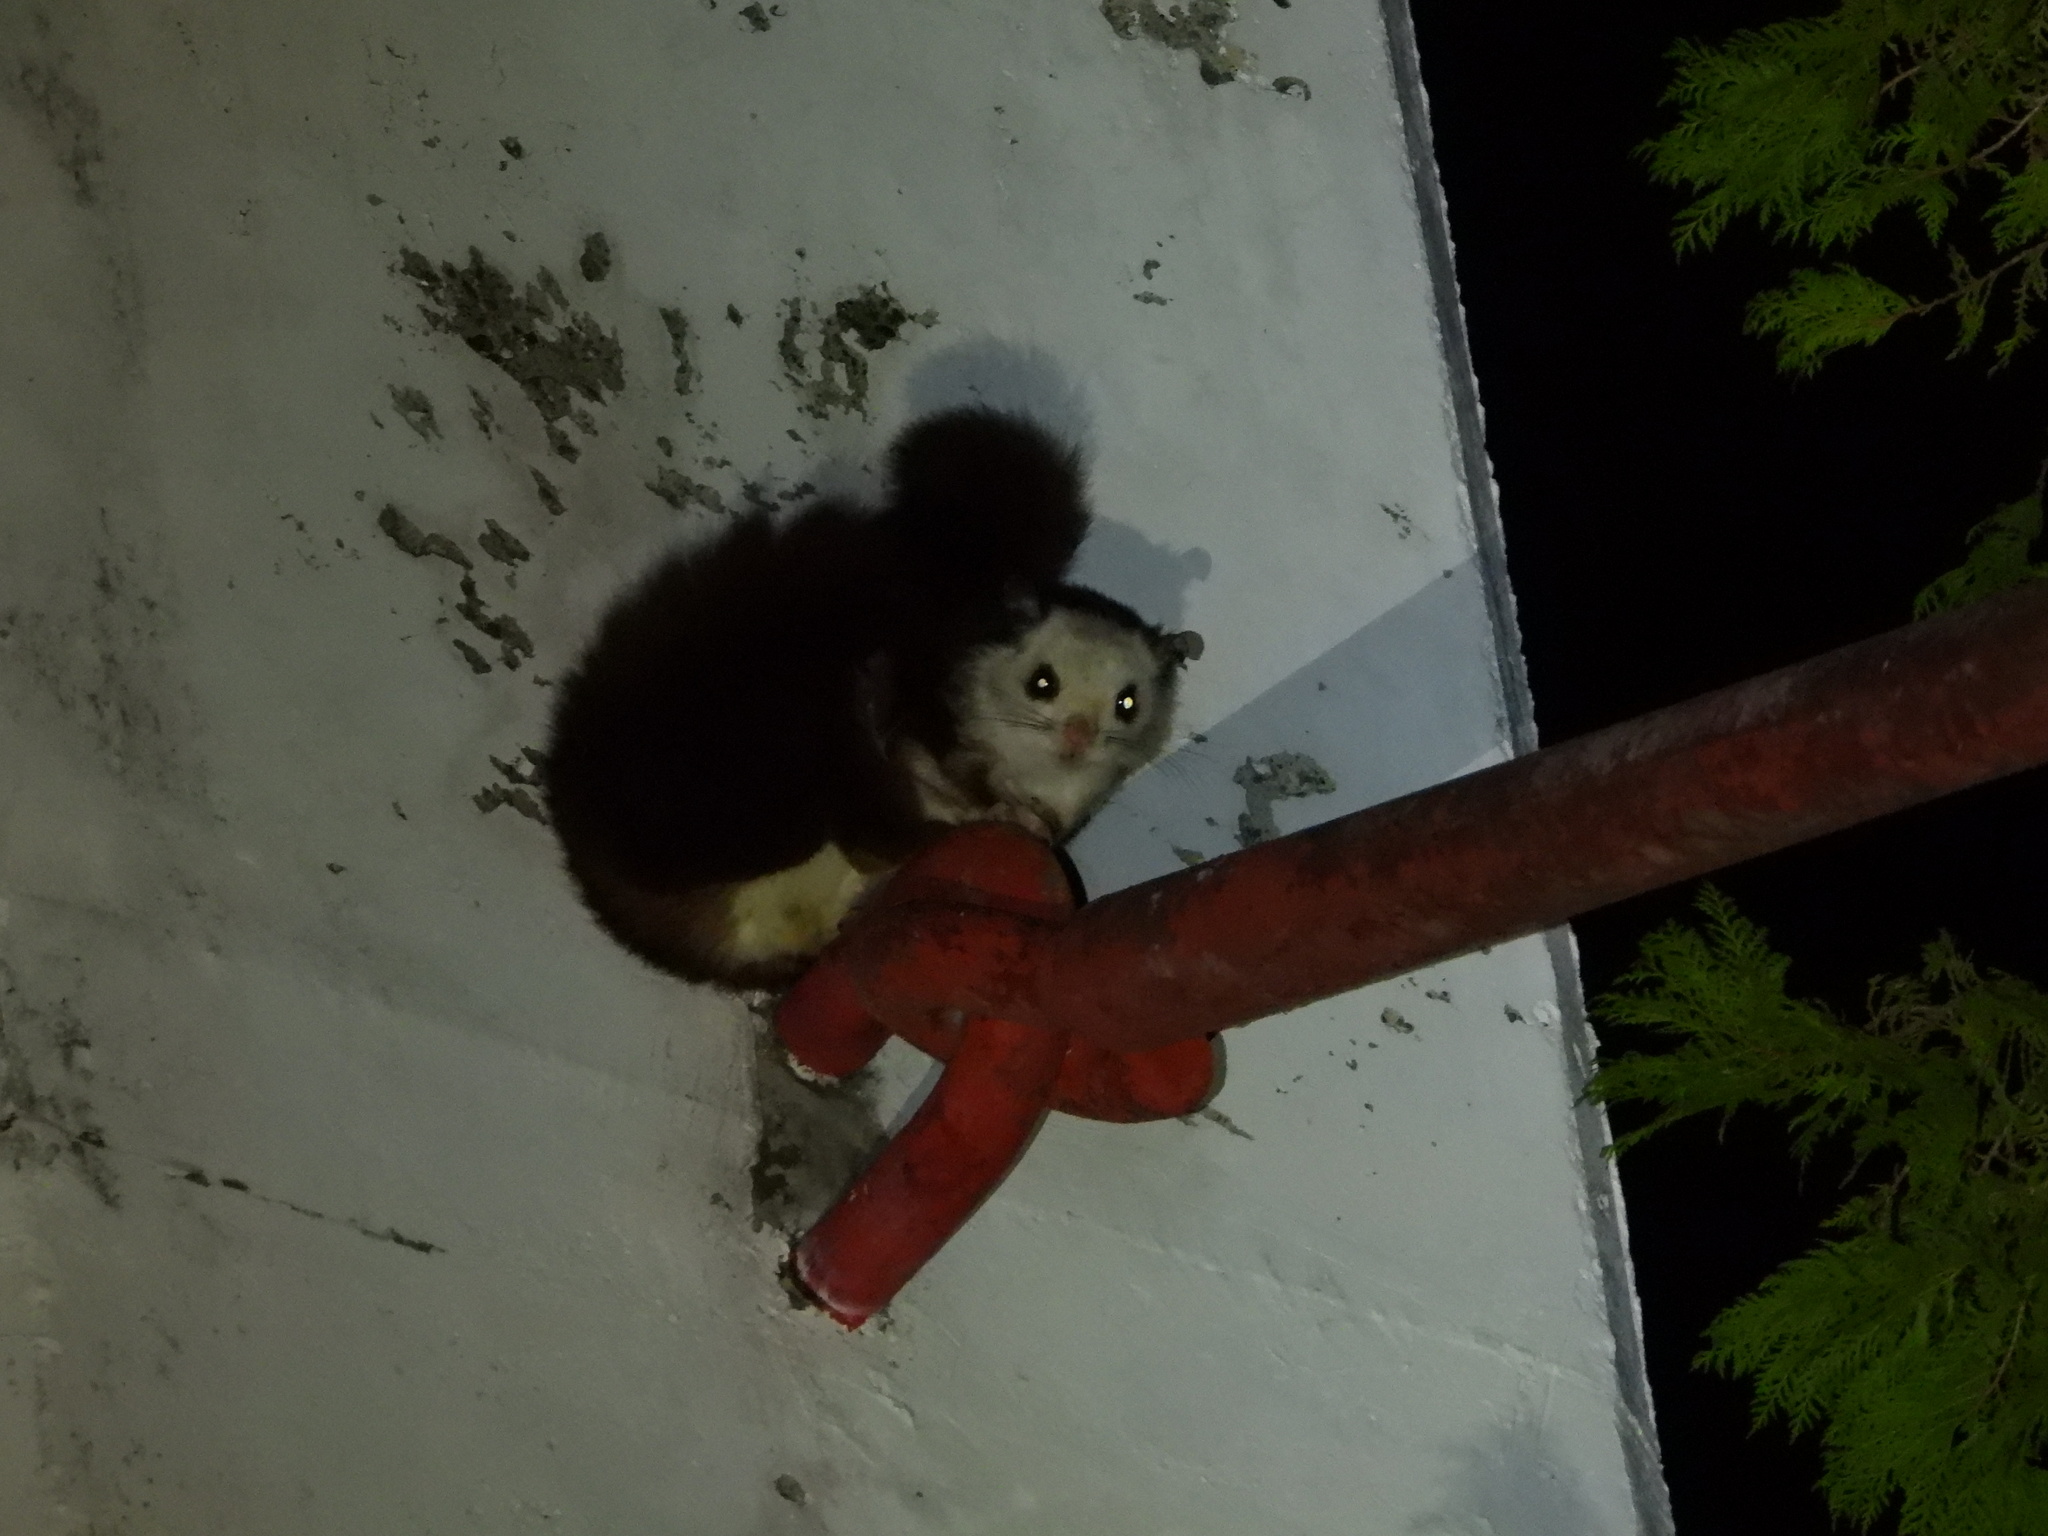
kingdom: Animalia
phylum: Chordata
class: Mammalia
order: Rodentia
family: Sciuridae
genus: Petaurista
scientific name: Petaurista lena
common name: Taiwan giant flying squirrel
